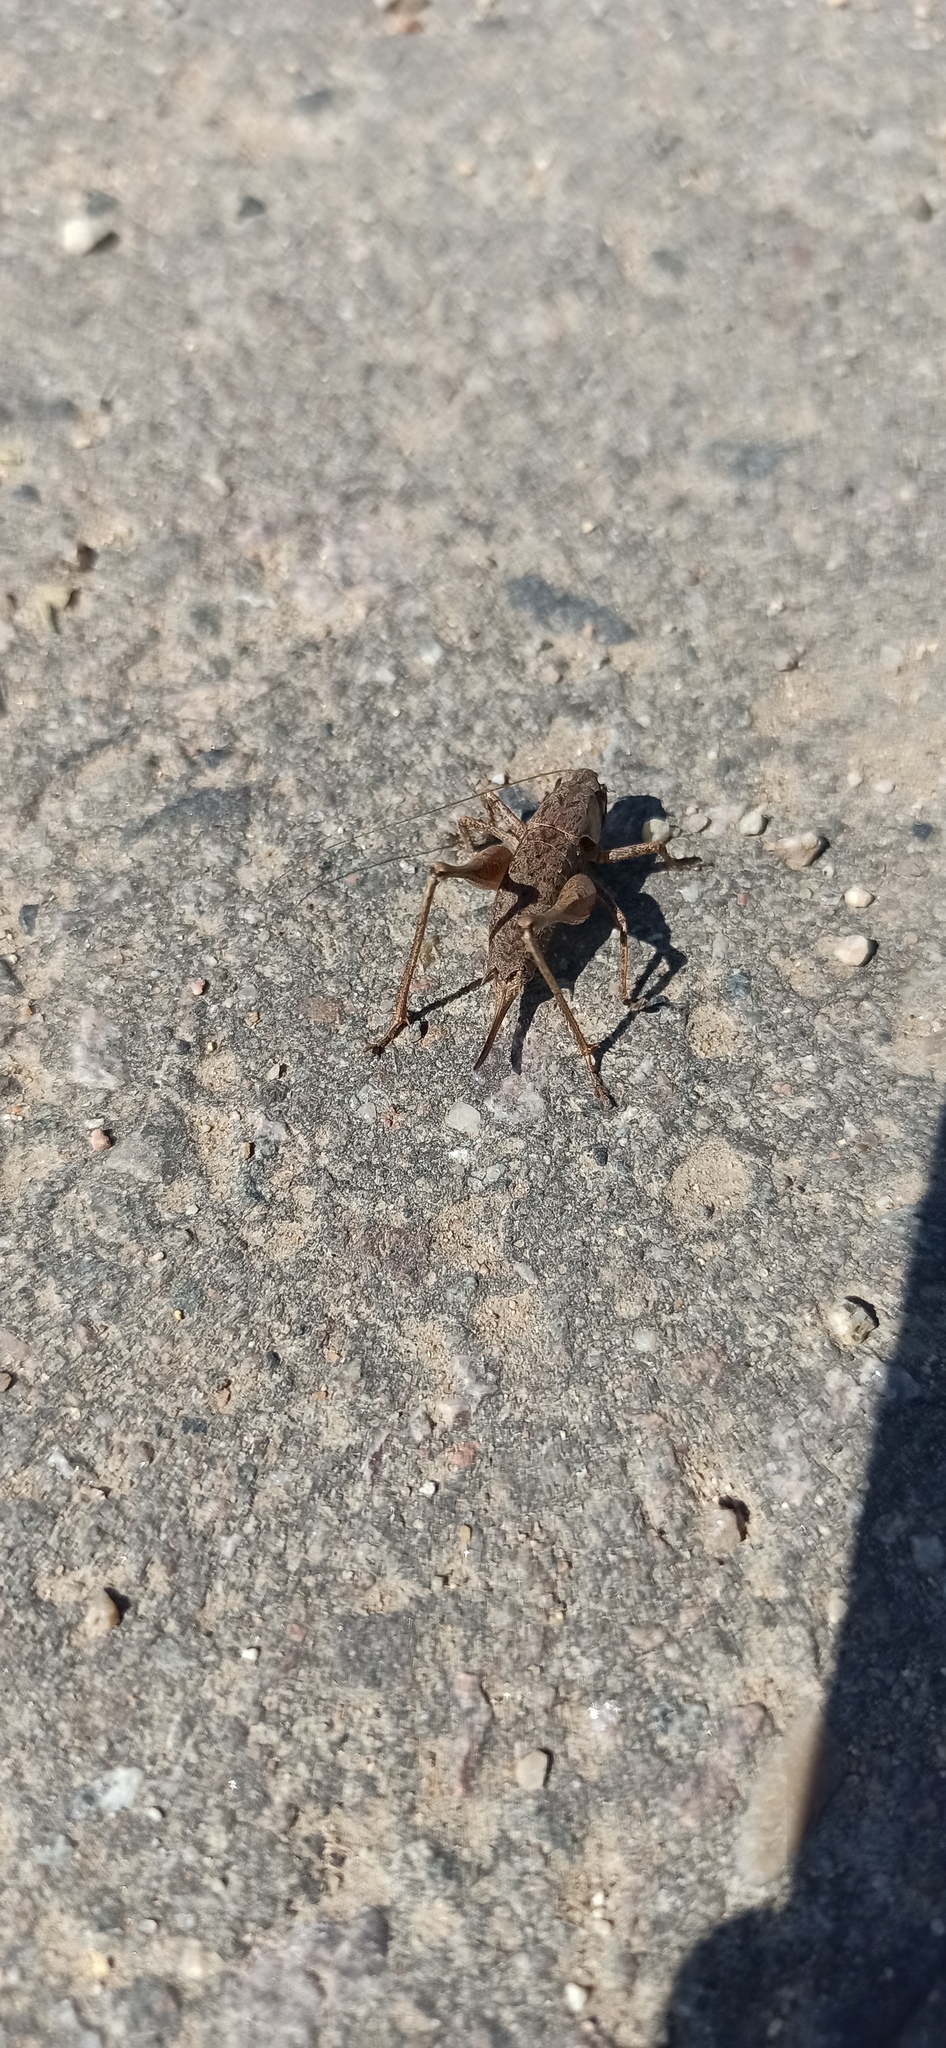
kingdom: Animalia
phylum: Arthropoda
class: Insecta
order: Orthoptera
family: Tettigoniidae
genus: Pholidoptera
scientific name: Pholidoptera griseoaptera
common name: Dark bush-cricket
